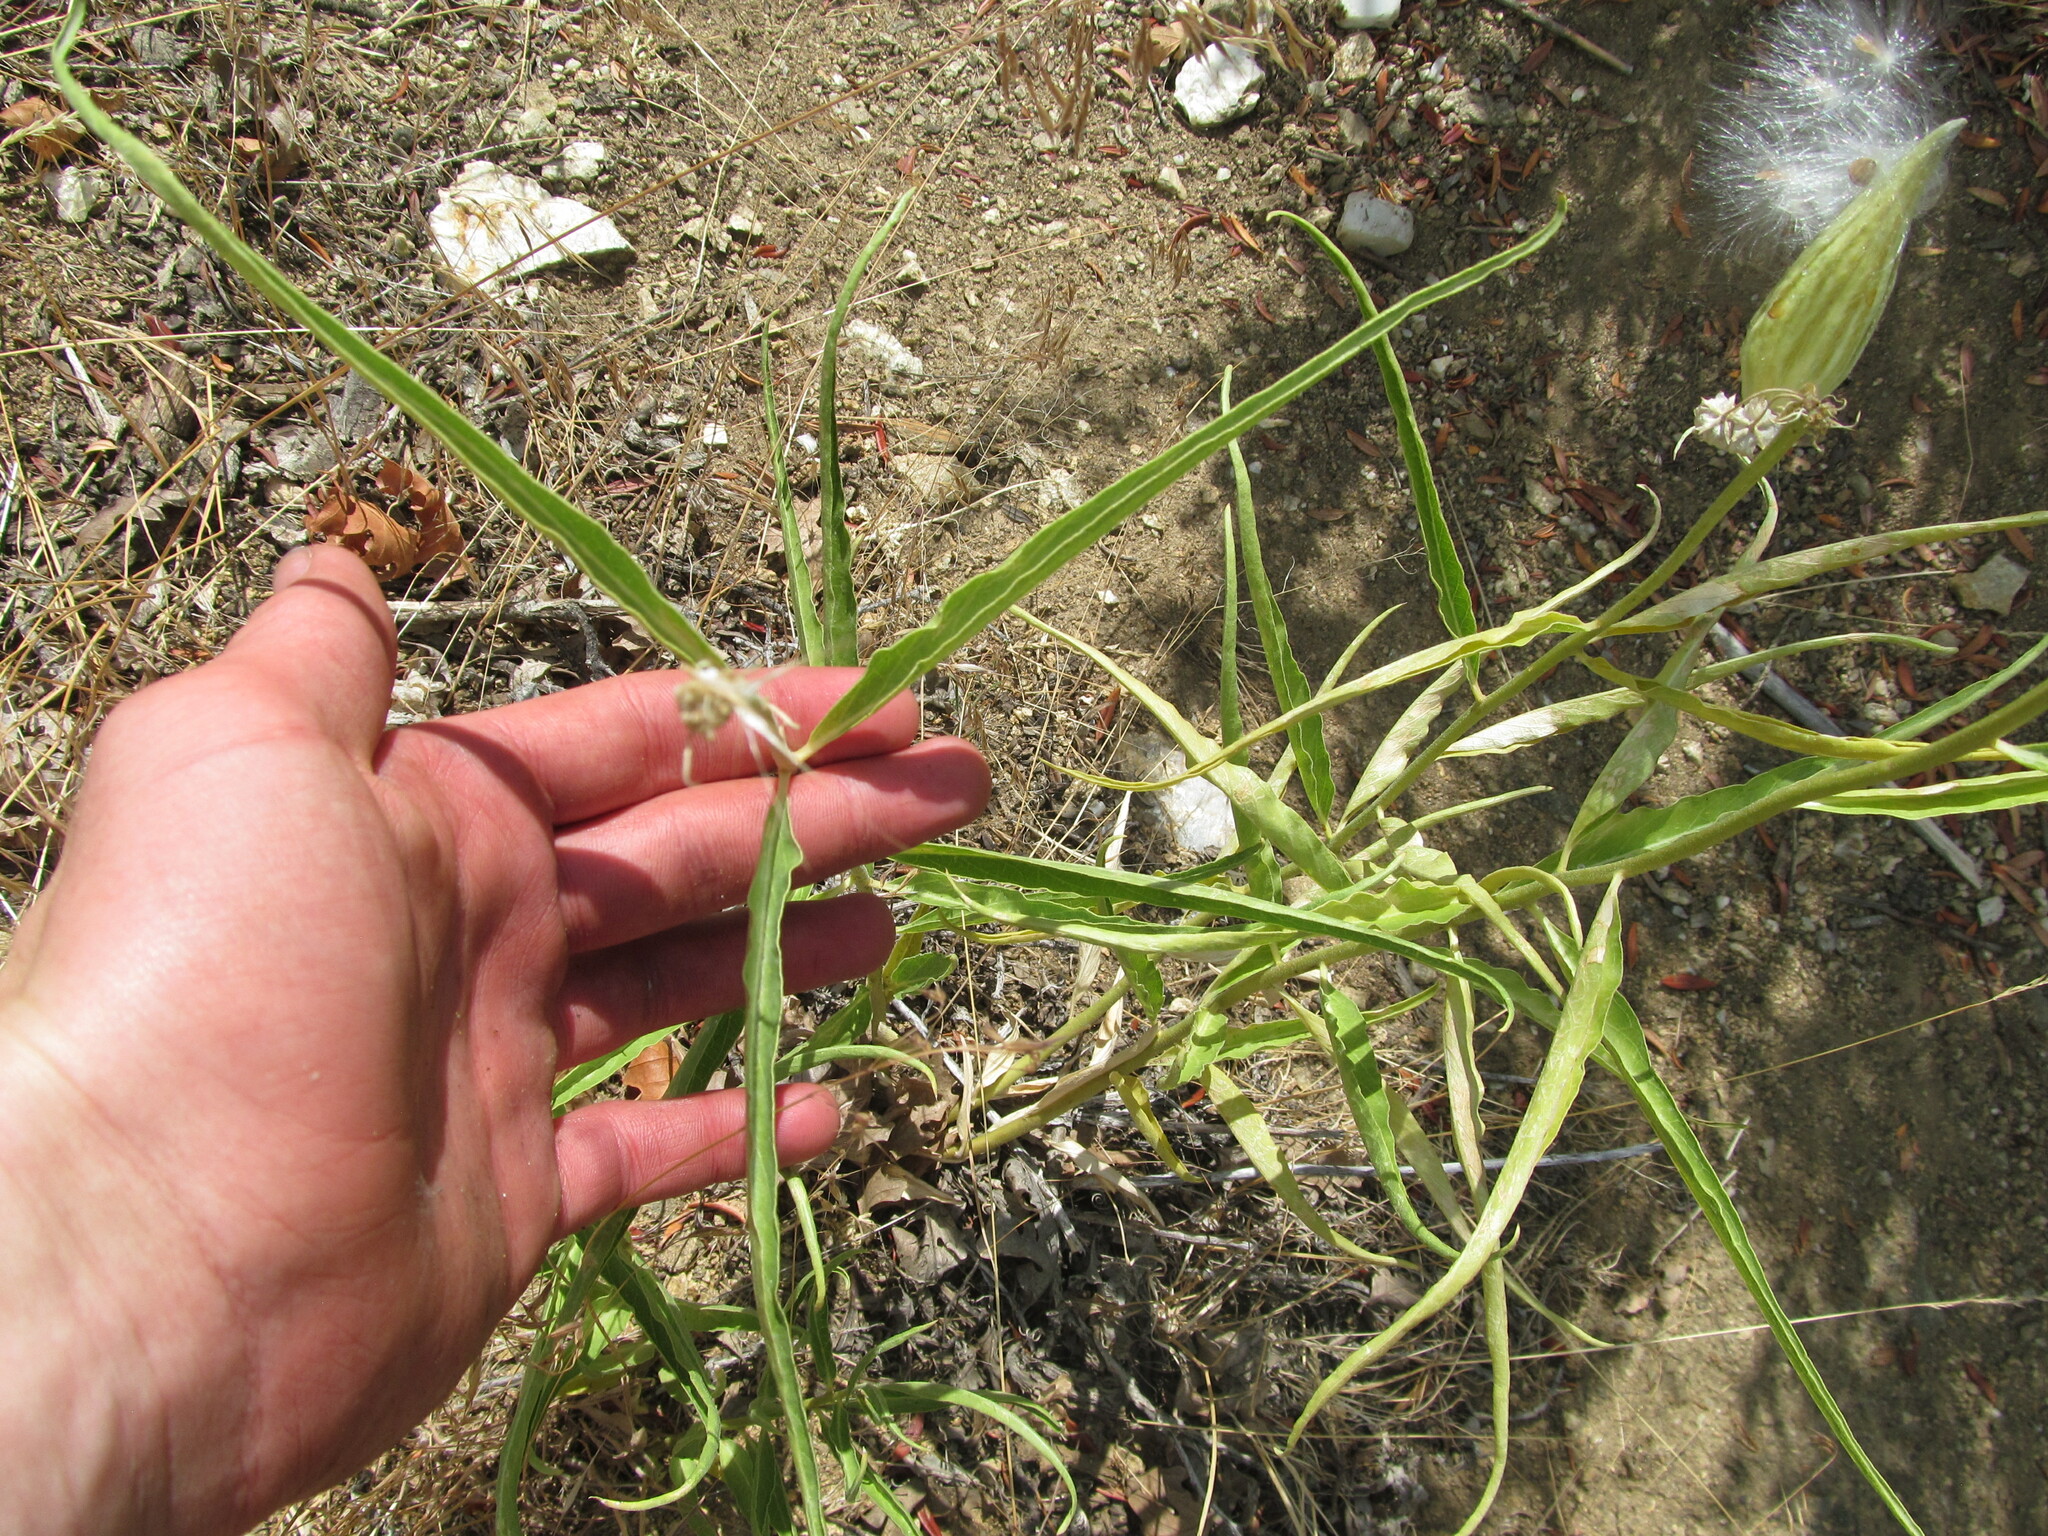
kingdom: Plantae
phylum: Tracheophyta
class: Magnoliopsida
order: Gentianales
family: Apocynaceae
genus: Asclepias
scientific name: Asclepias asperula
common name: Antelope horns
